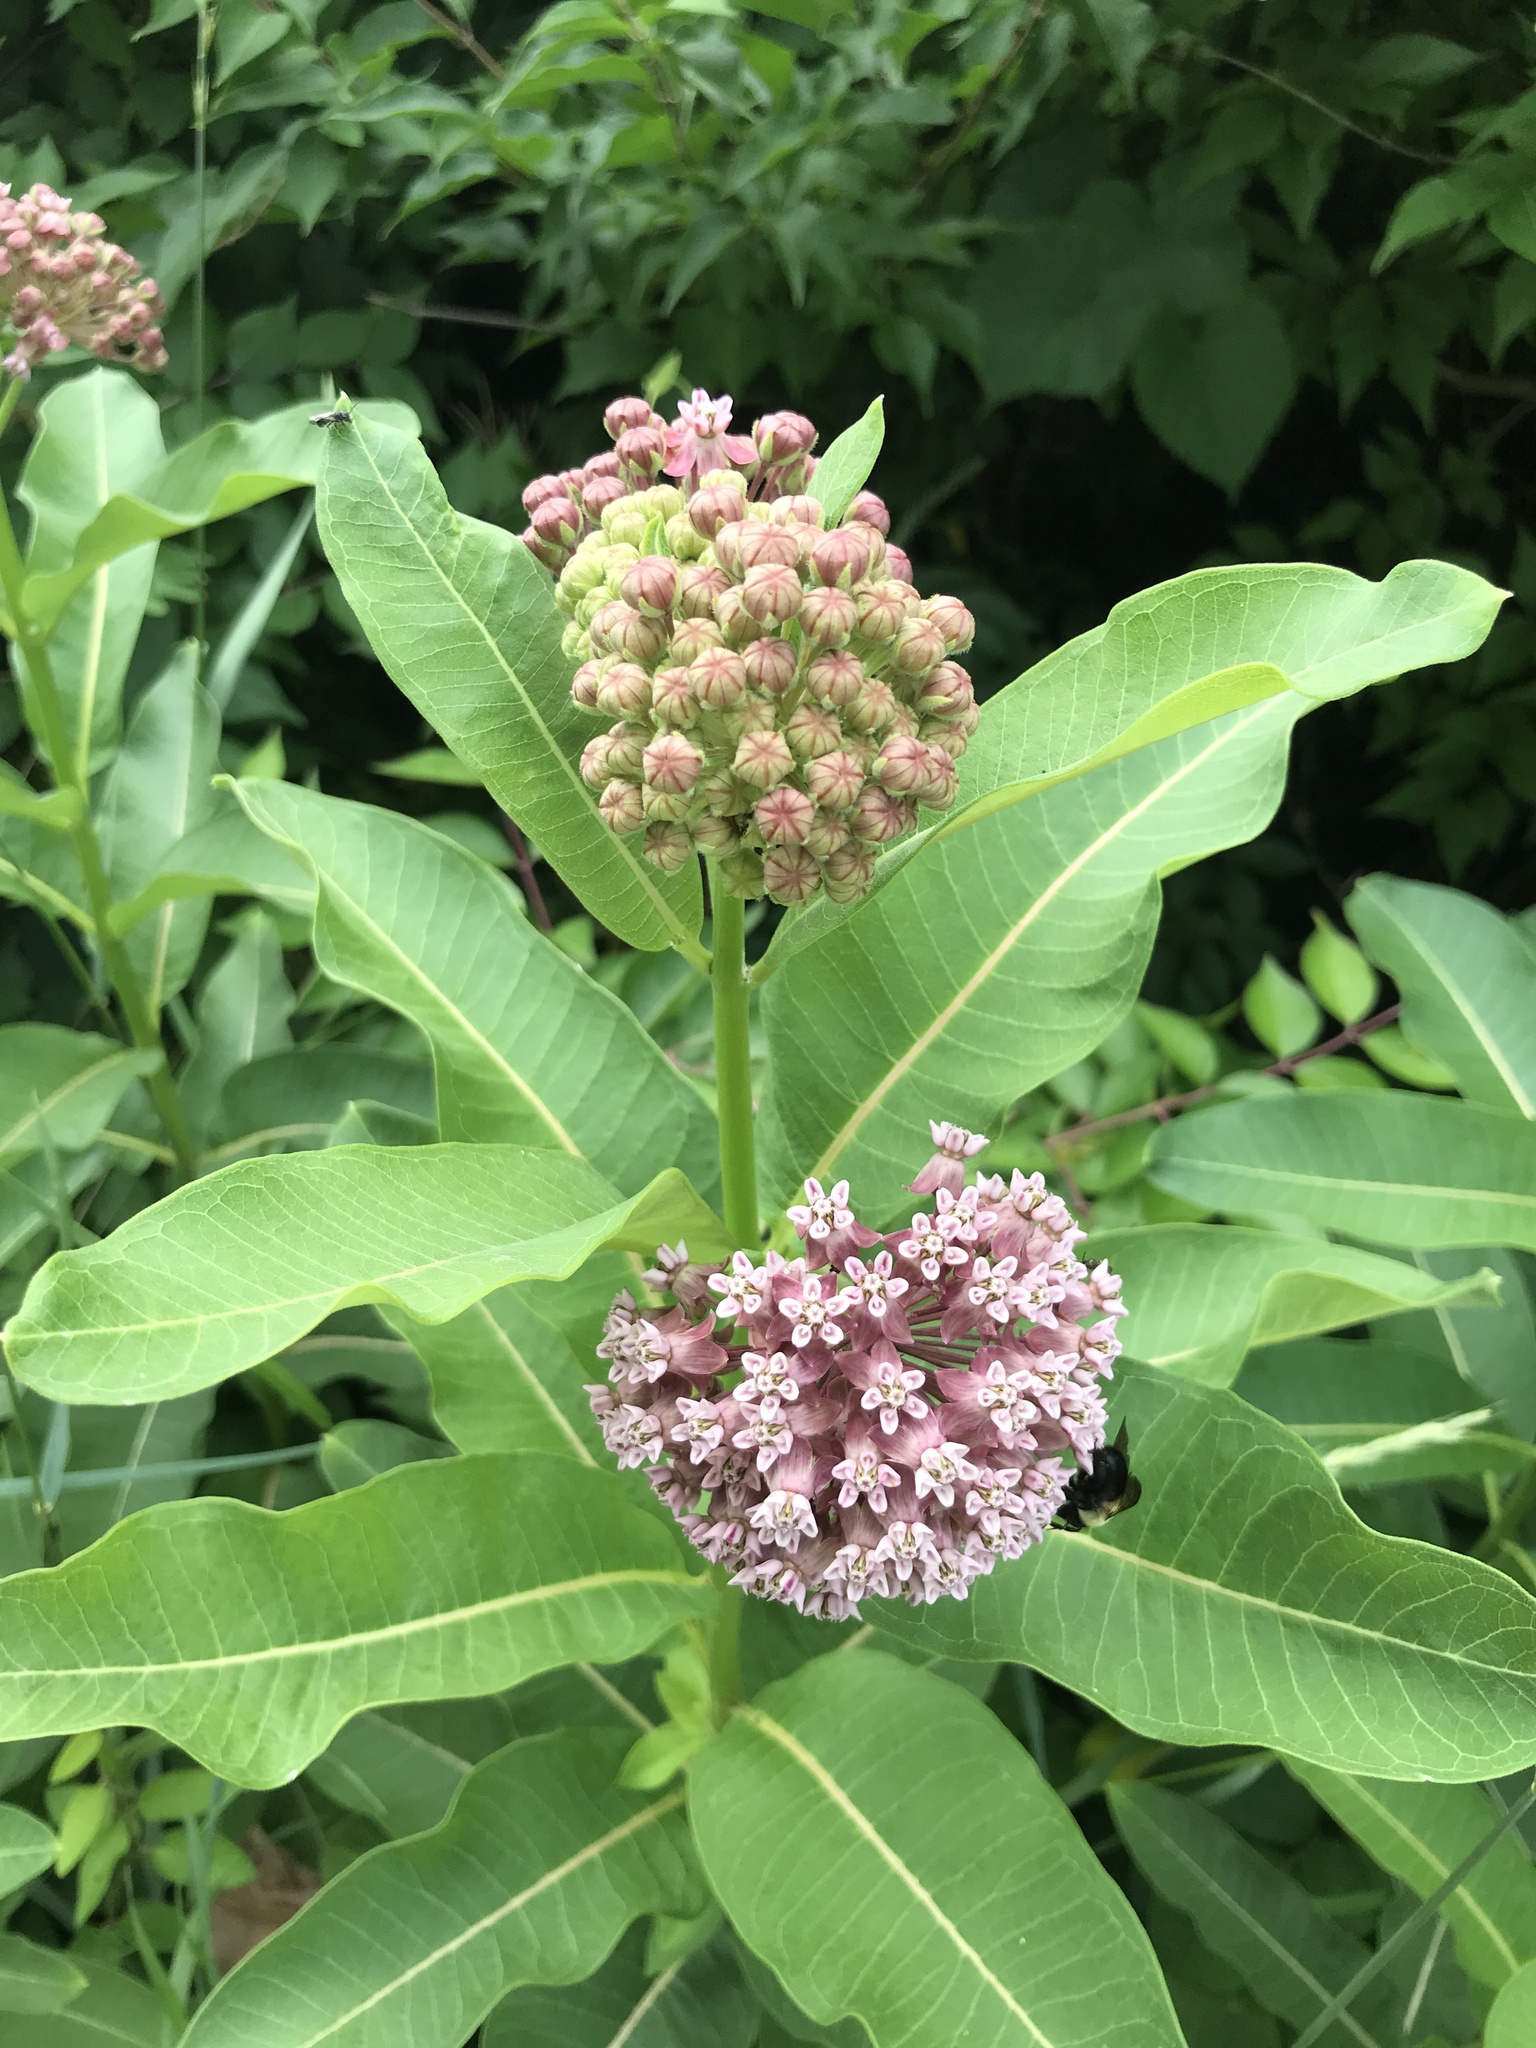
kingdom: Plantae
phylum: Tracheophyta
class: Magnoliopsida
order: Gentianales
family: Apocynaceae
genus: Asclepias
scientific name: Asclepias syriaca
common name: Common milkweed
